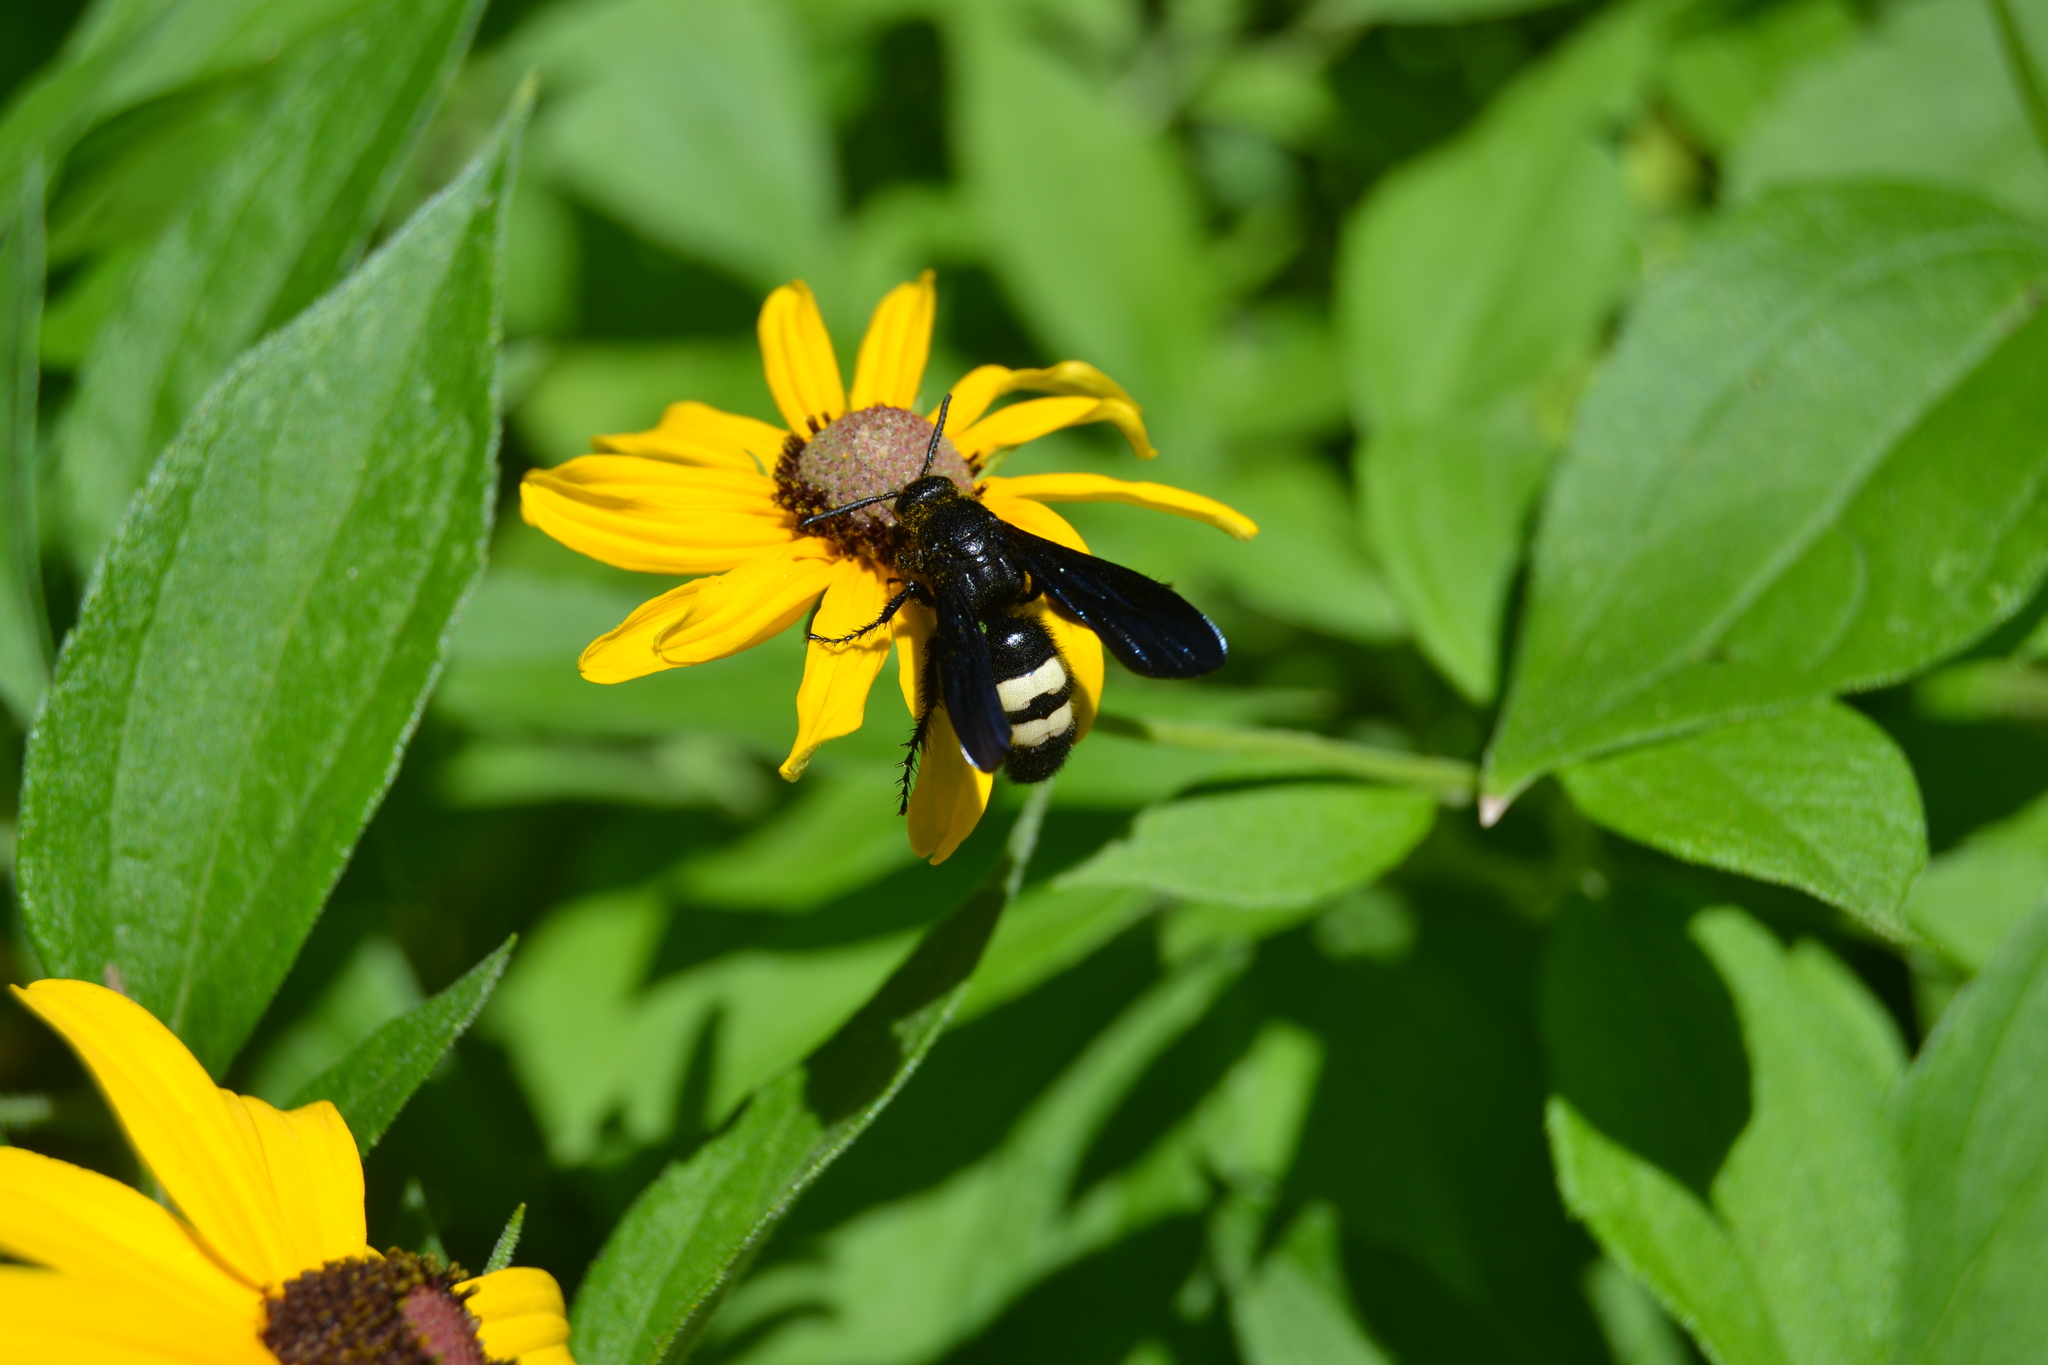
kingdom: Animalia
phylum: Arthropoda
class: Insecta
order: Hymenoptera
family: Scoliidae
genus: Scolia
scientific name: Scolia bicincta
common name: Double-banded scoliid wasp
